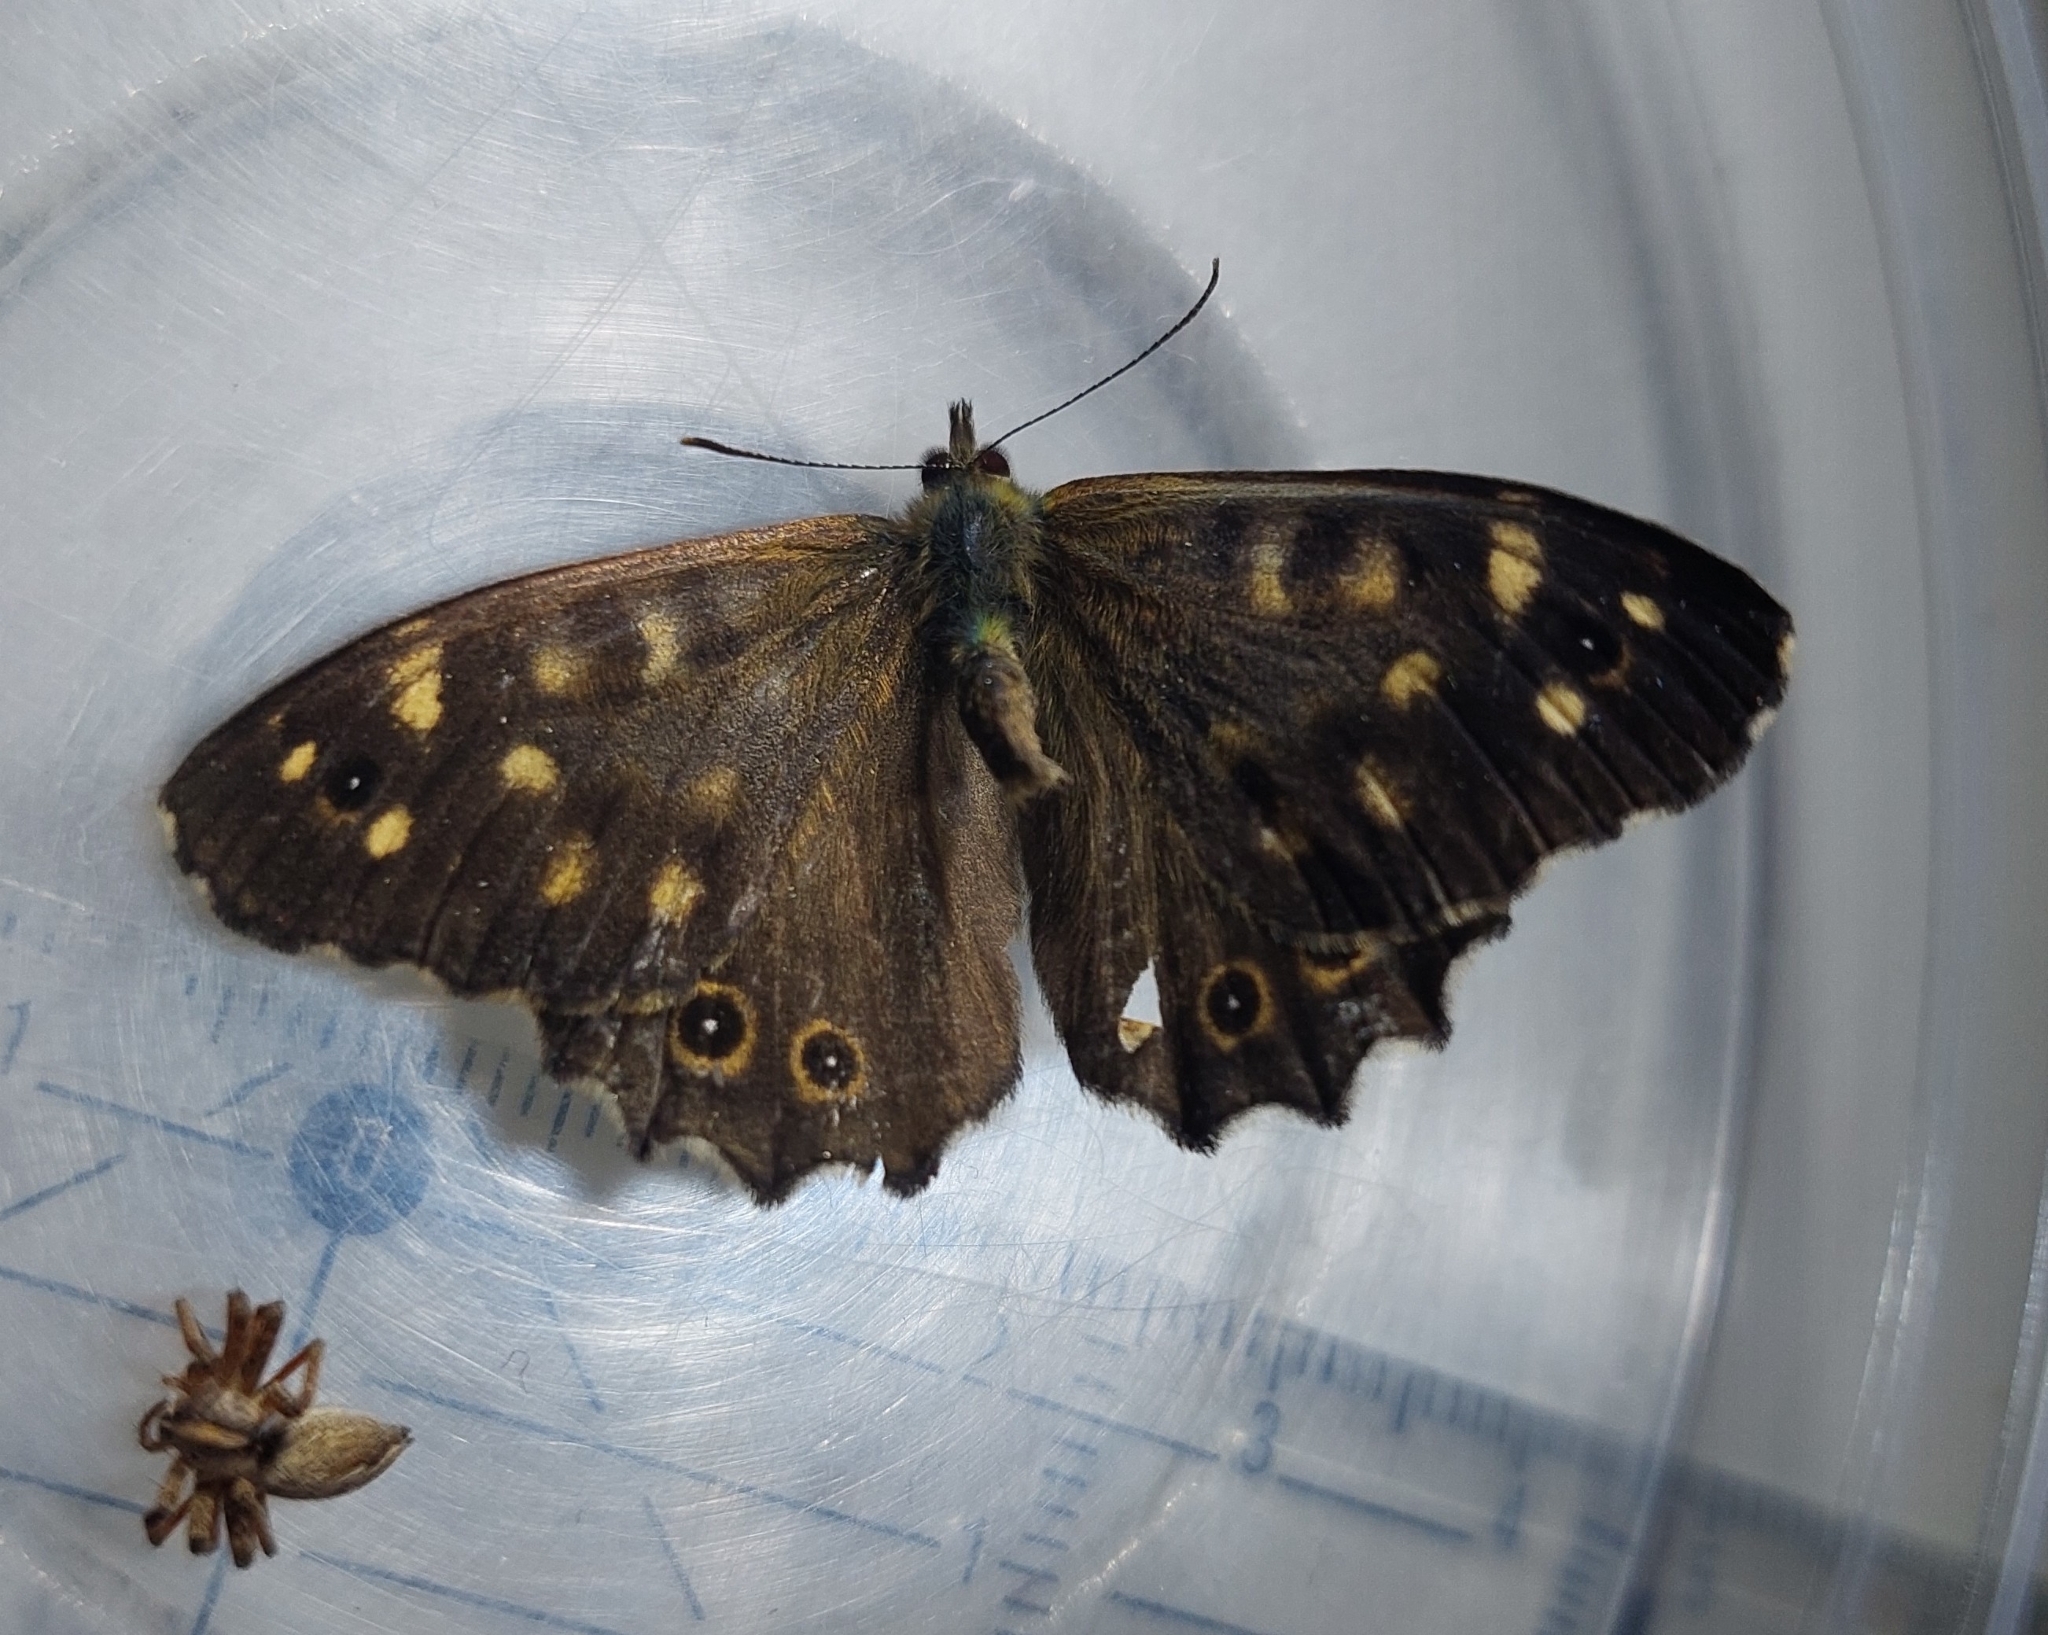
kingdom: Animalia
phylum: Arthropoda
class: Insecta
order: Lepidoptera
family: Nymphalidae
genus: Pararge
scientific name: Pararge aegeria
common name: Speckled wood
